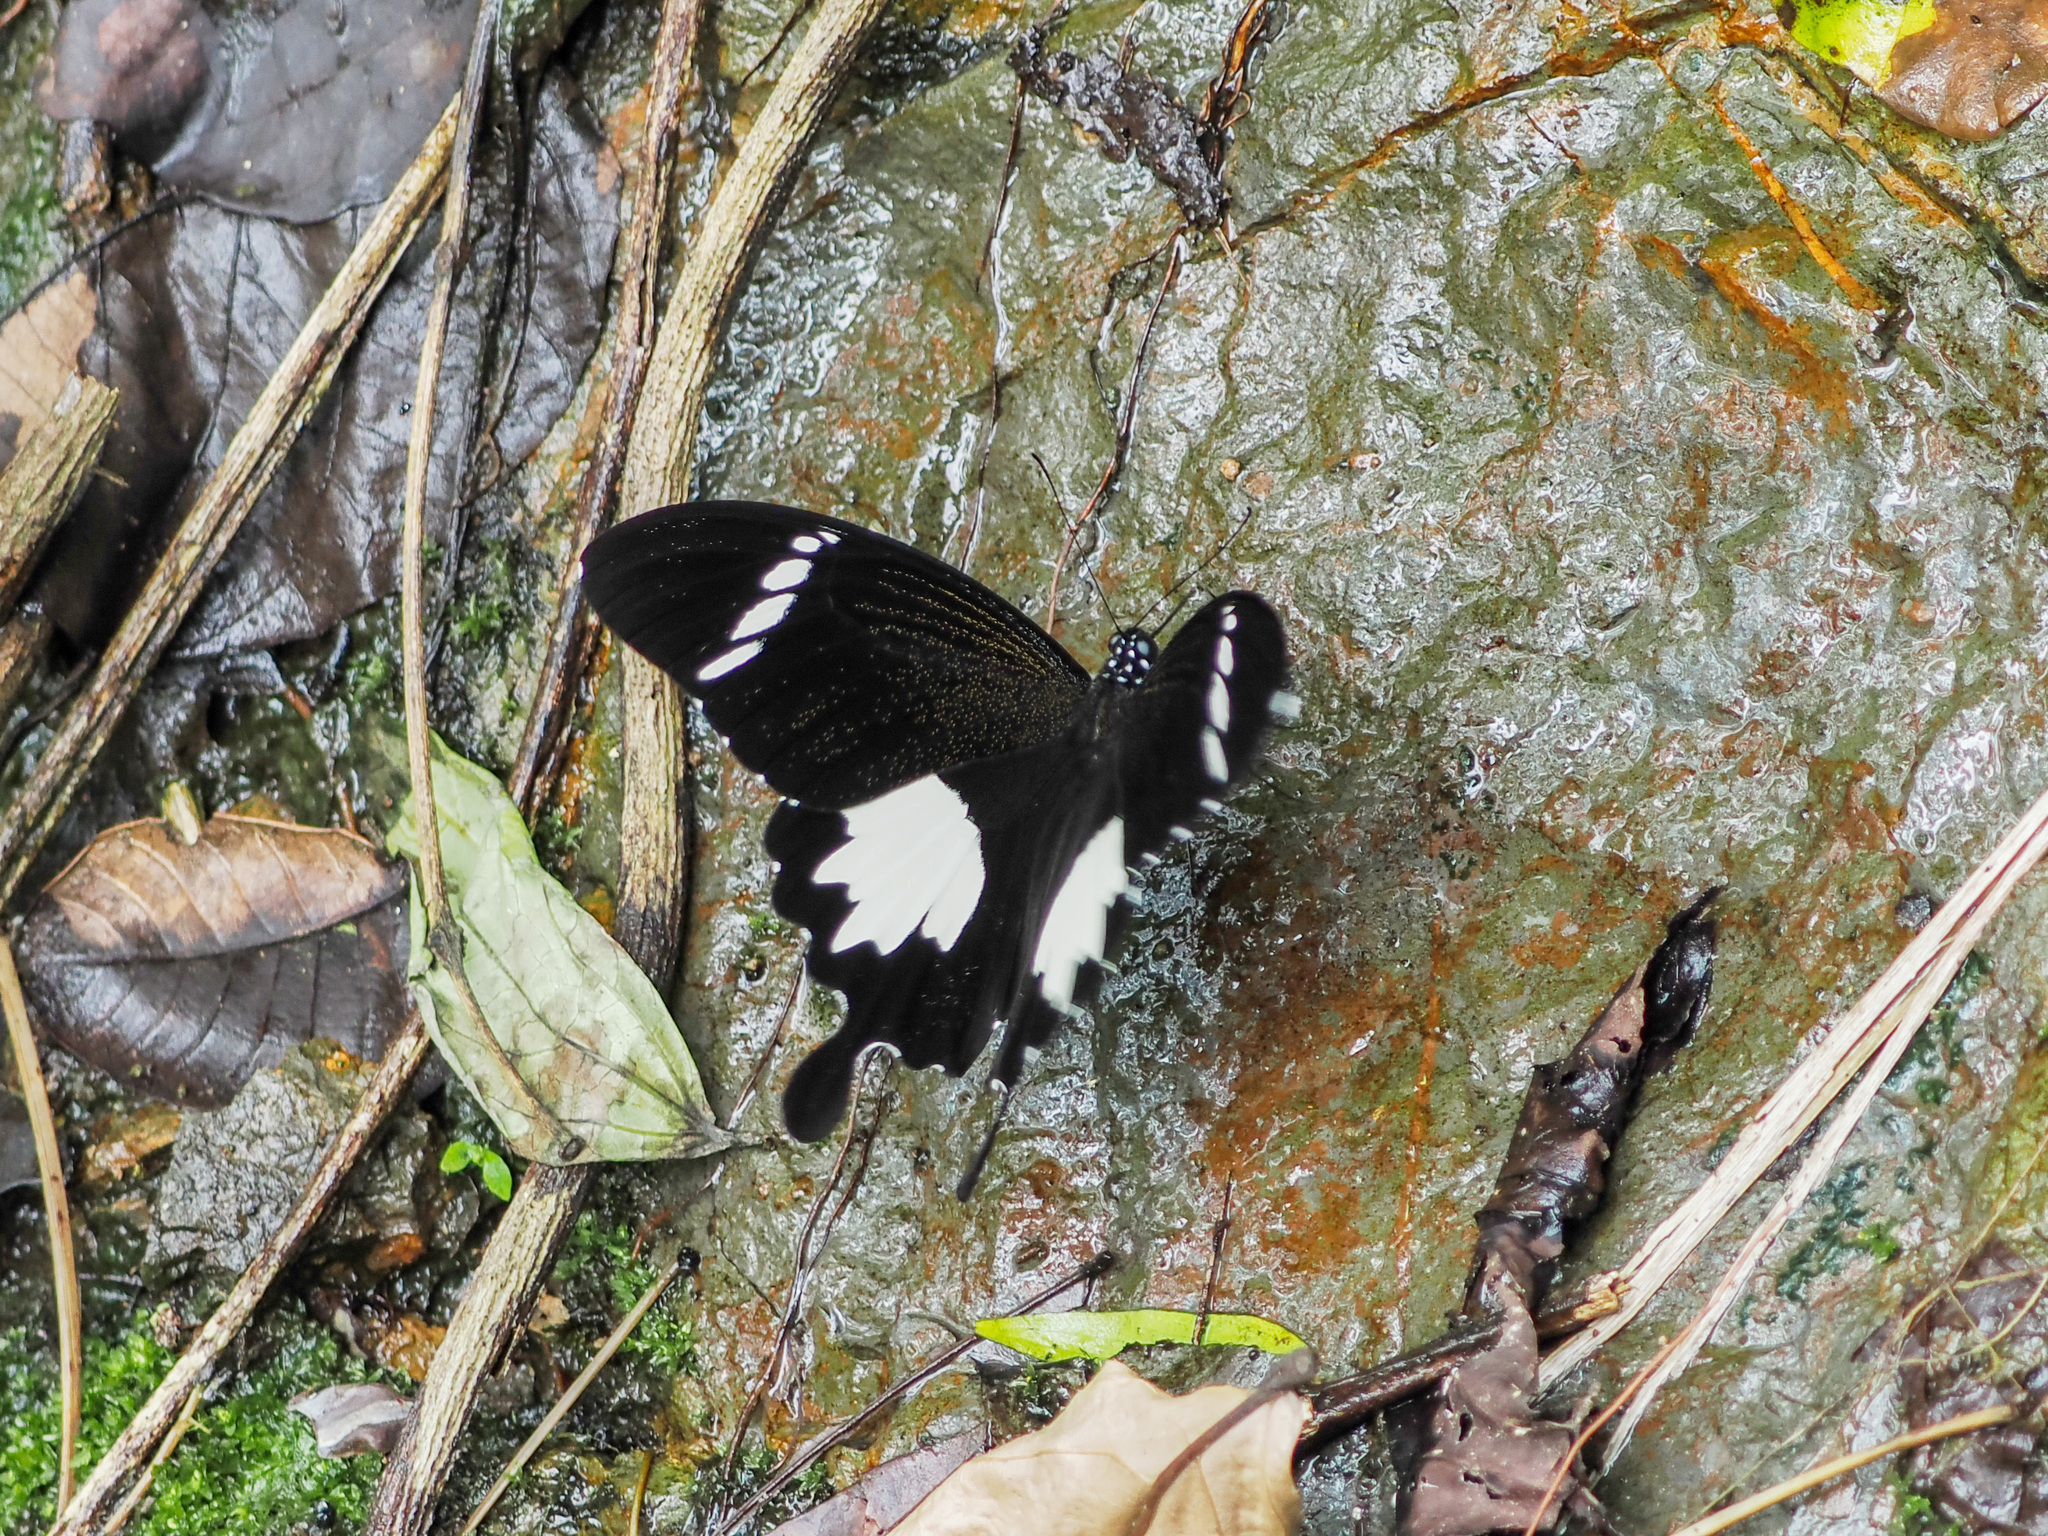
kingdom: Animalia
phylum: Arthropoda
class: Insecta
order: Lepidoptera
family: Papilionidae
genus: Papilio
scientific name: Papilio nephelus
